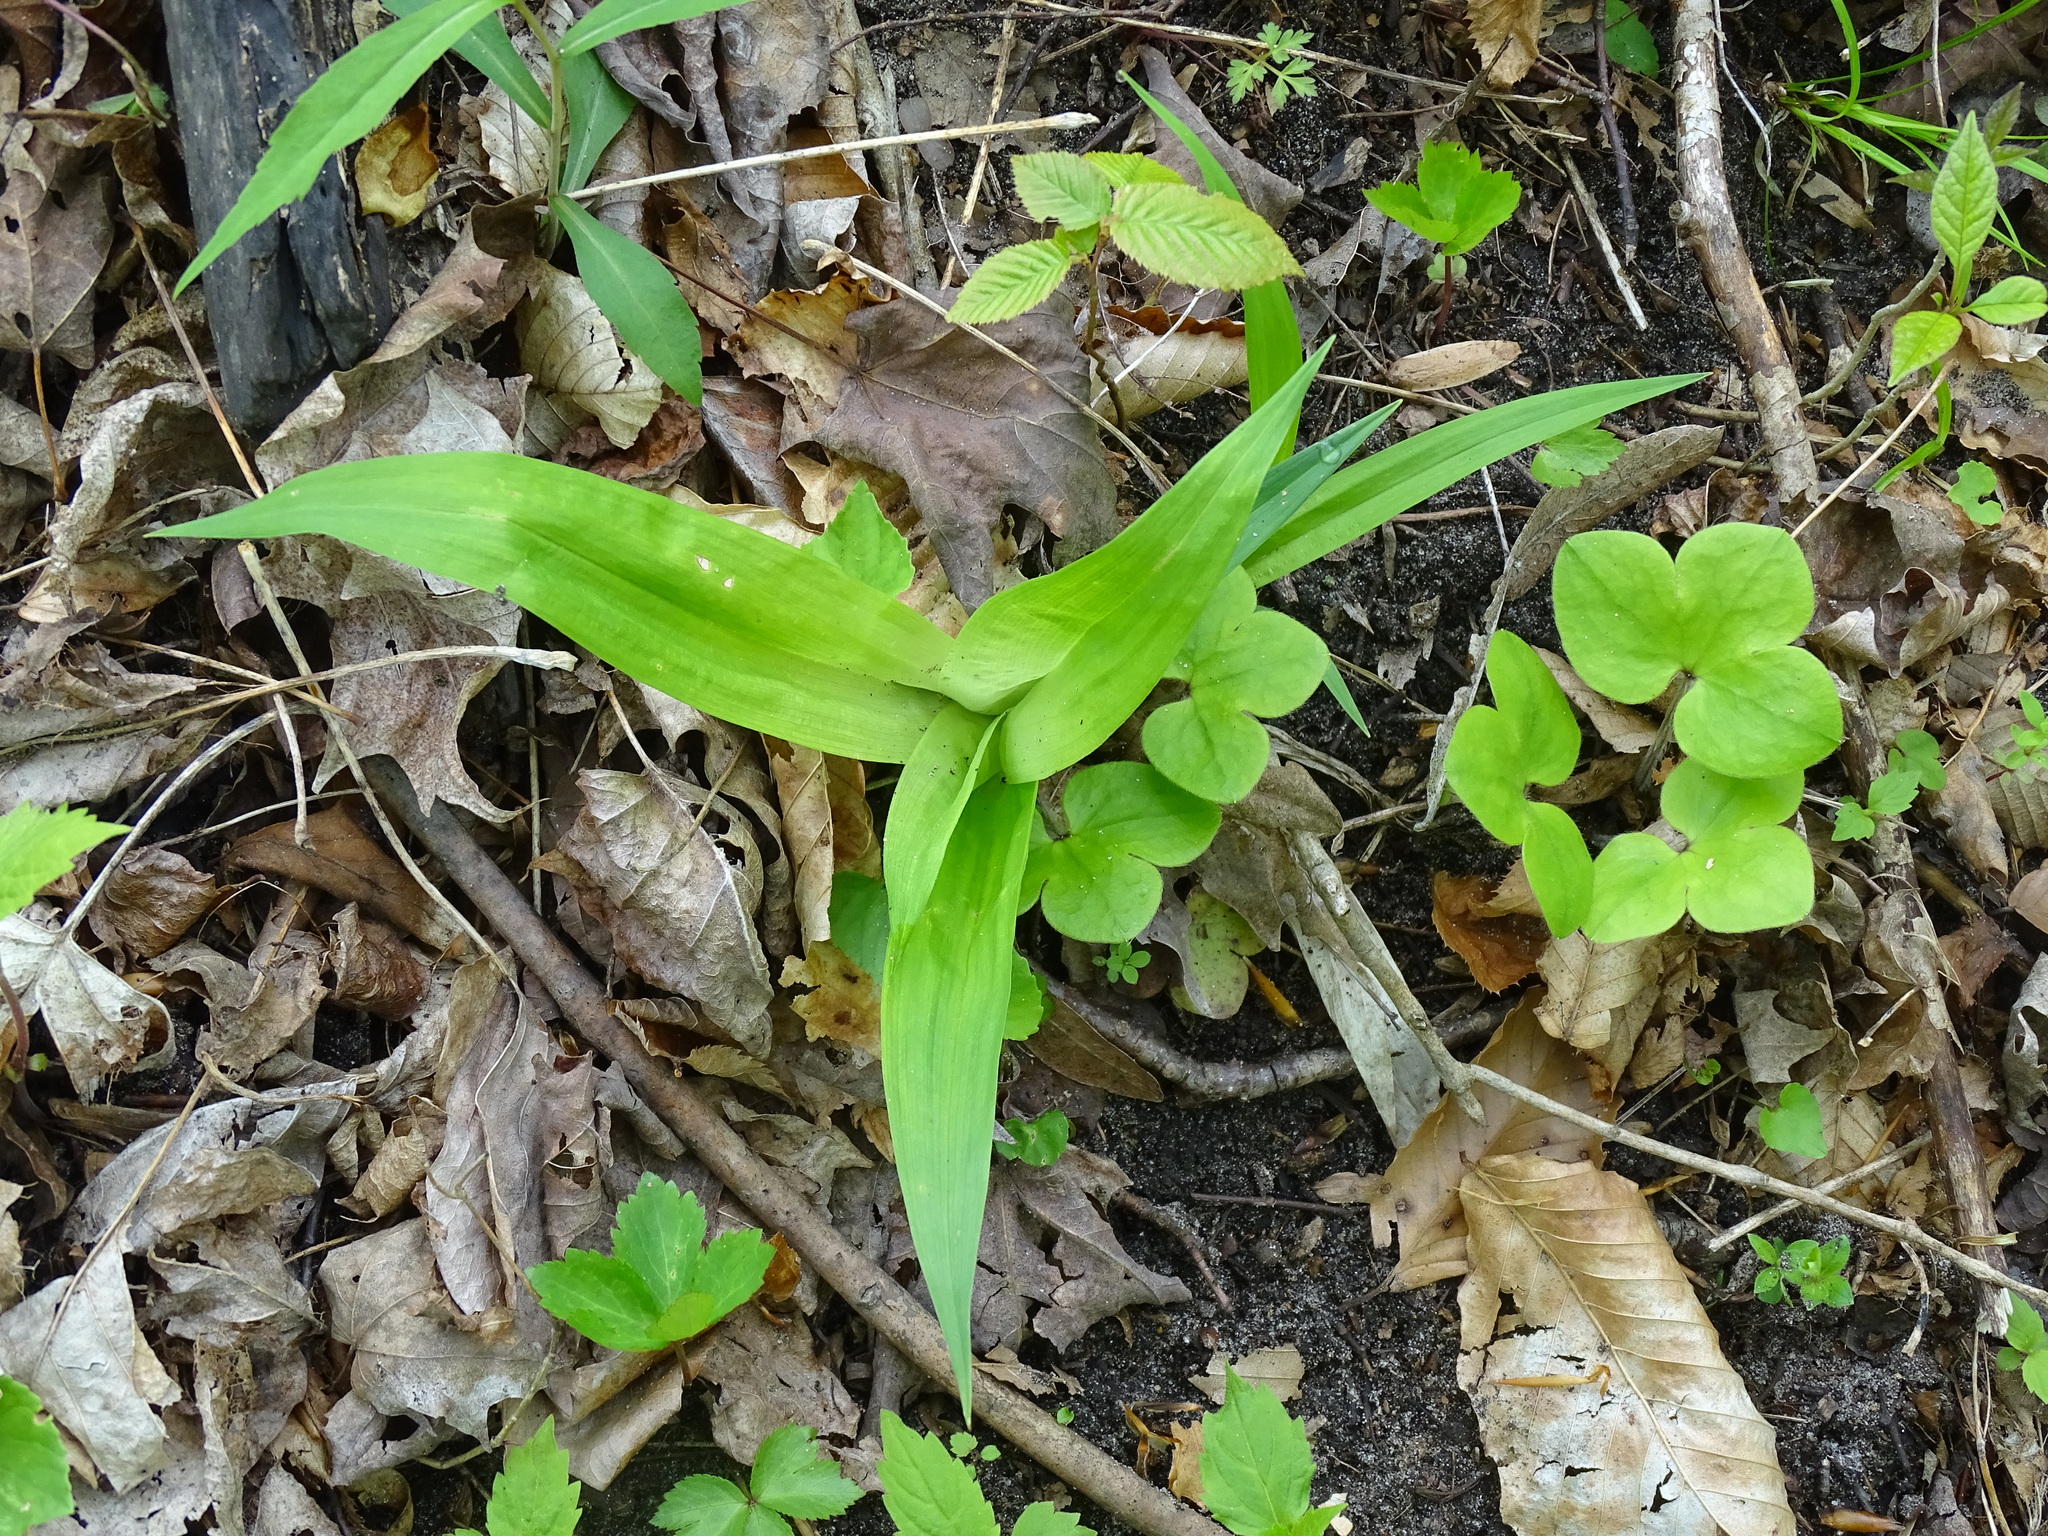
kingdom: Plantae
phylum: Tracheophyta
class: Liliopsida
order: Poales
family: Cyperaceae
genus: Carex
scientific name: Carex albursina
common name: Blunt-scale wood sedge
